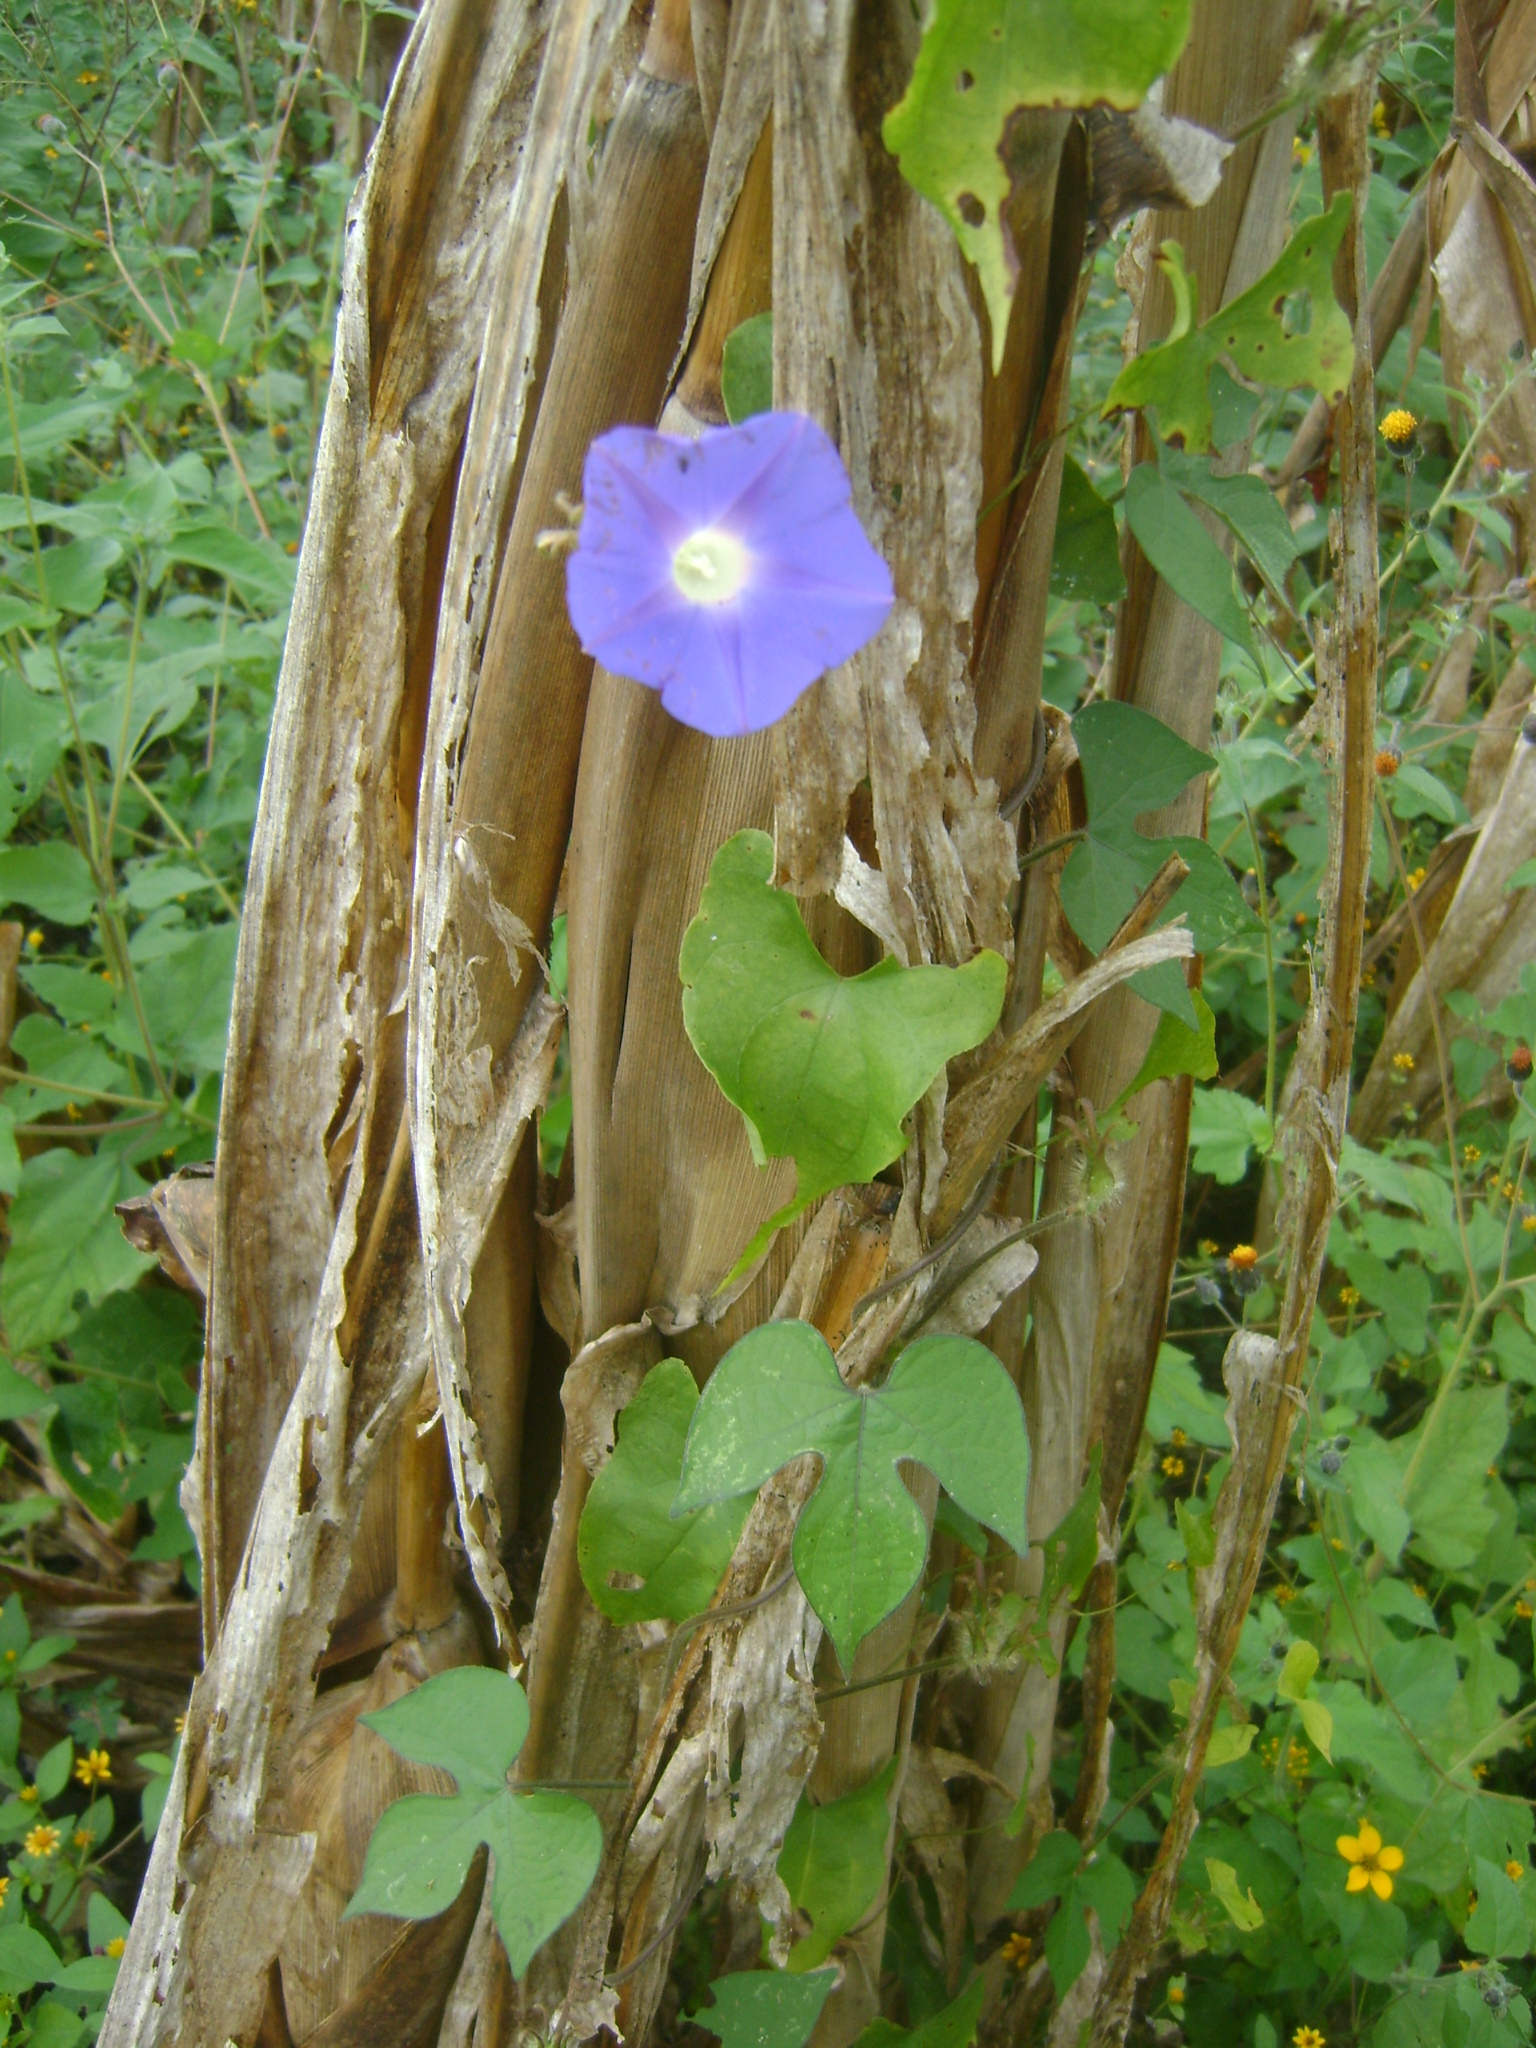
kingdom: Plantae
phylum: Tracheophyta
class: Magnoliopsida
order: Solanales
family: Convolvulaceae
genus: Ipomoea
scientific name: Ipomoea hederacea
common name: Ivy-leaved morning-glory
